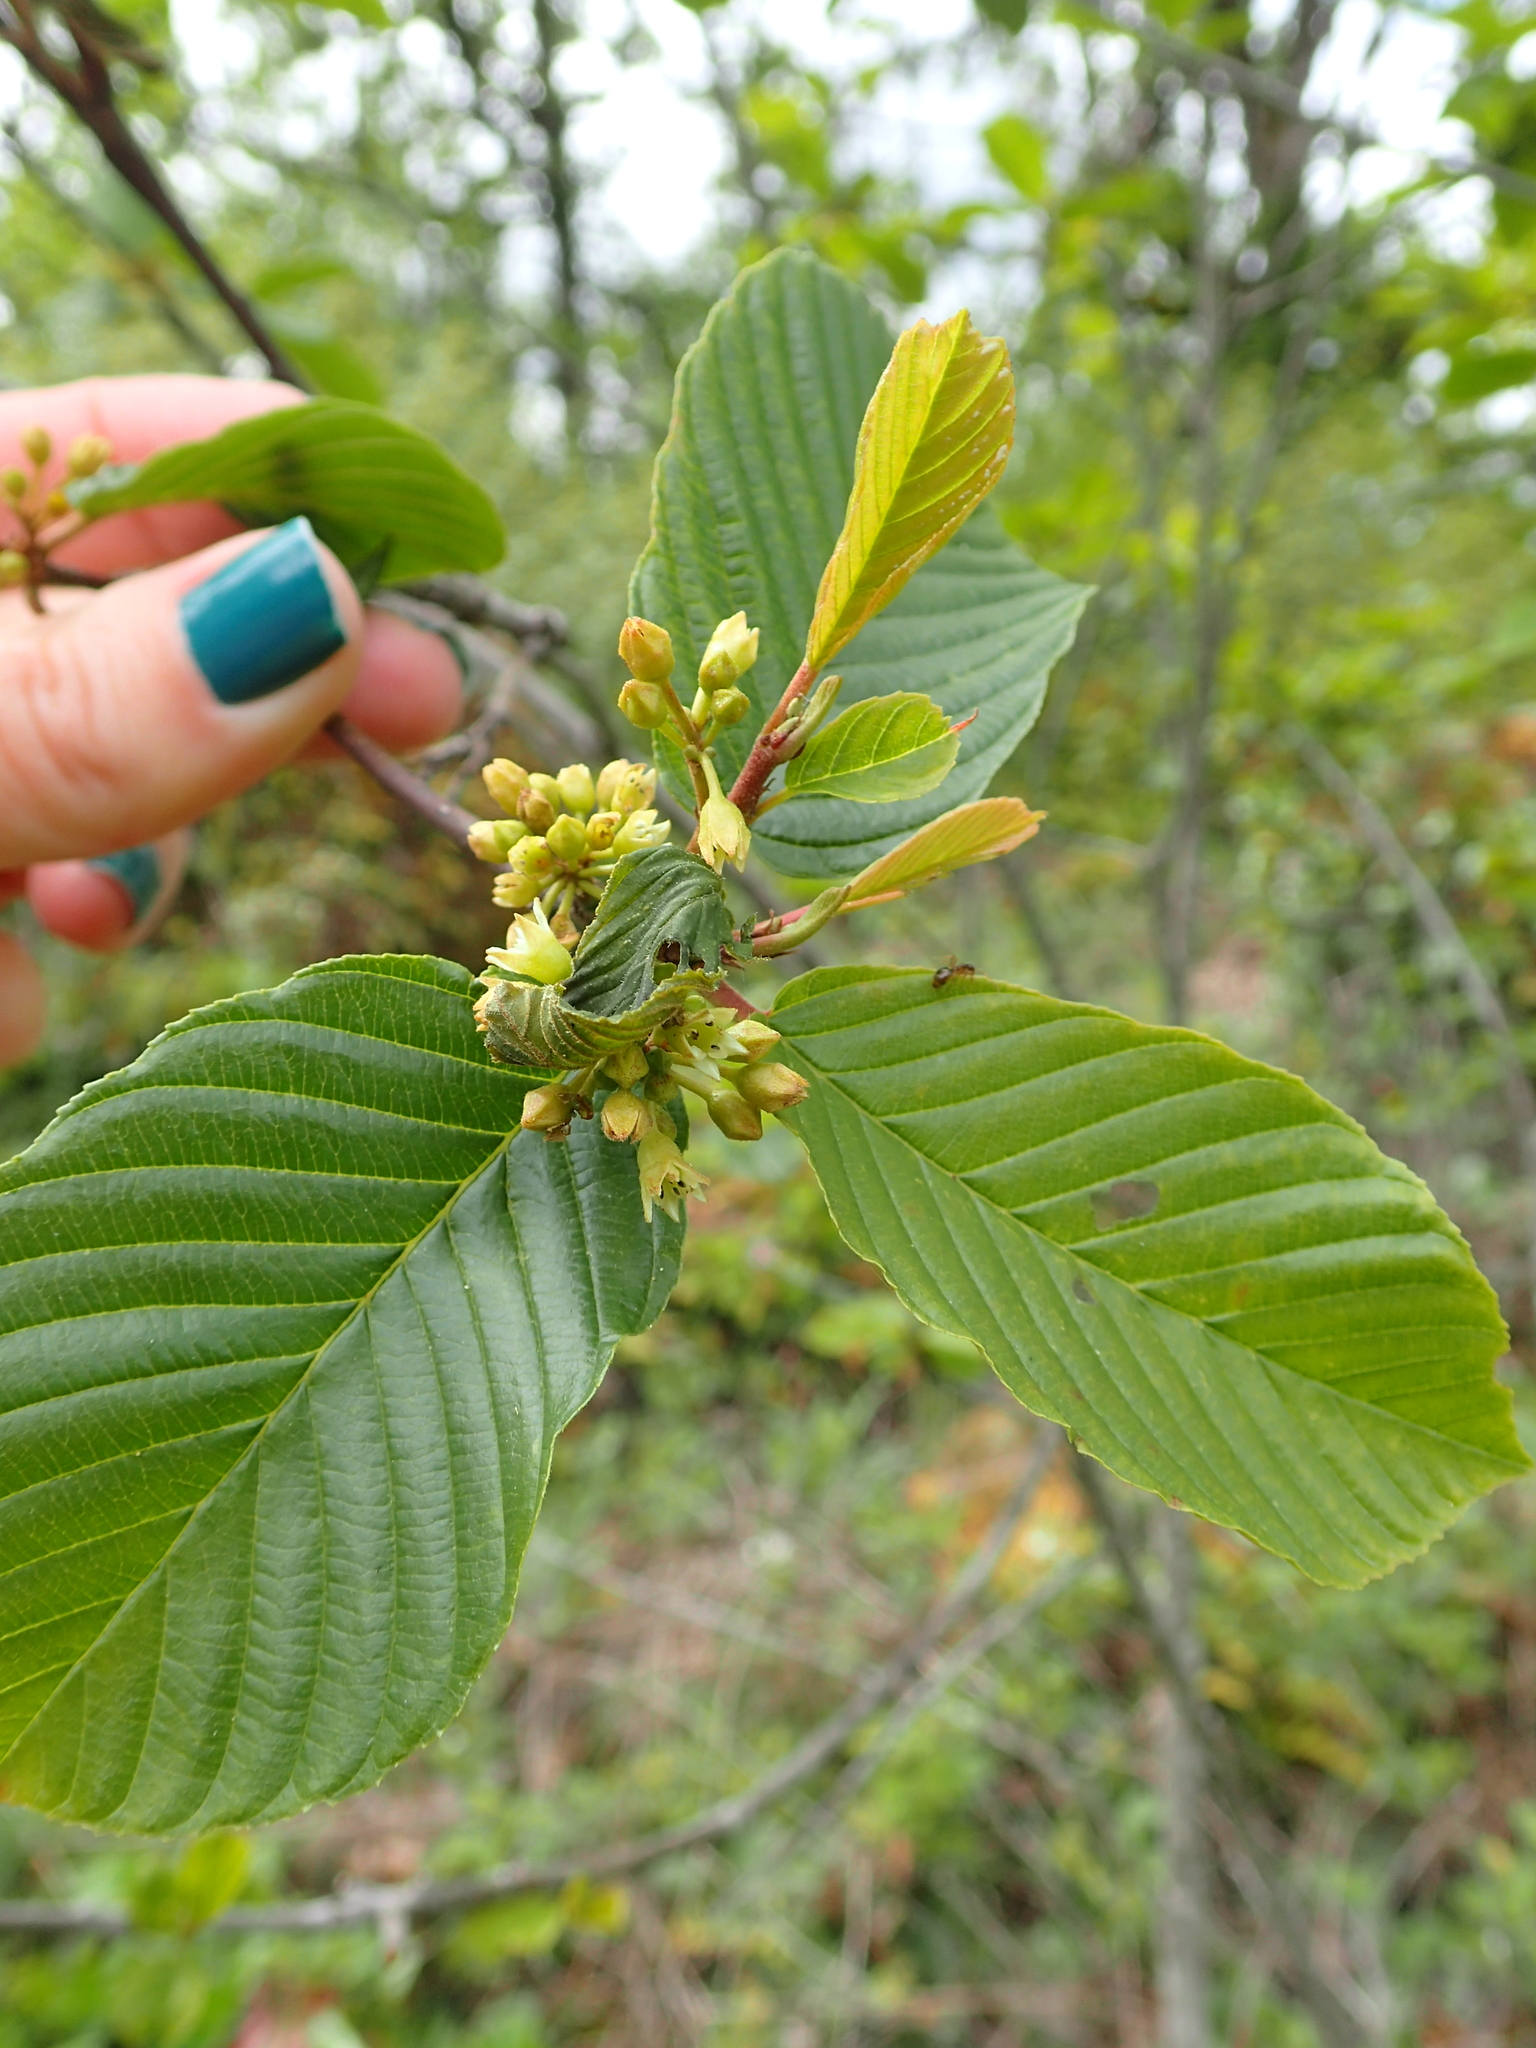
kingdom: Plantae
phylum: Tracheophyta
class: Magnoliopsida
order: Rosales
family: Rhamnaceae
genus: Frangula
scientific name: Frangula purshiana
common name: Cascara buckthorn
